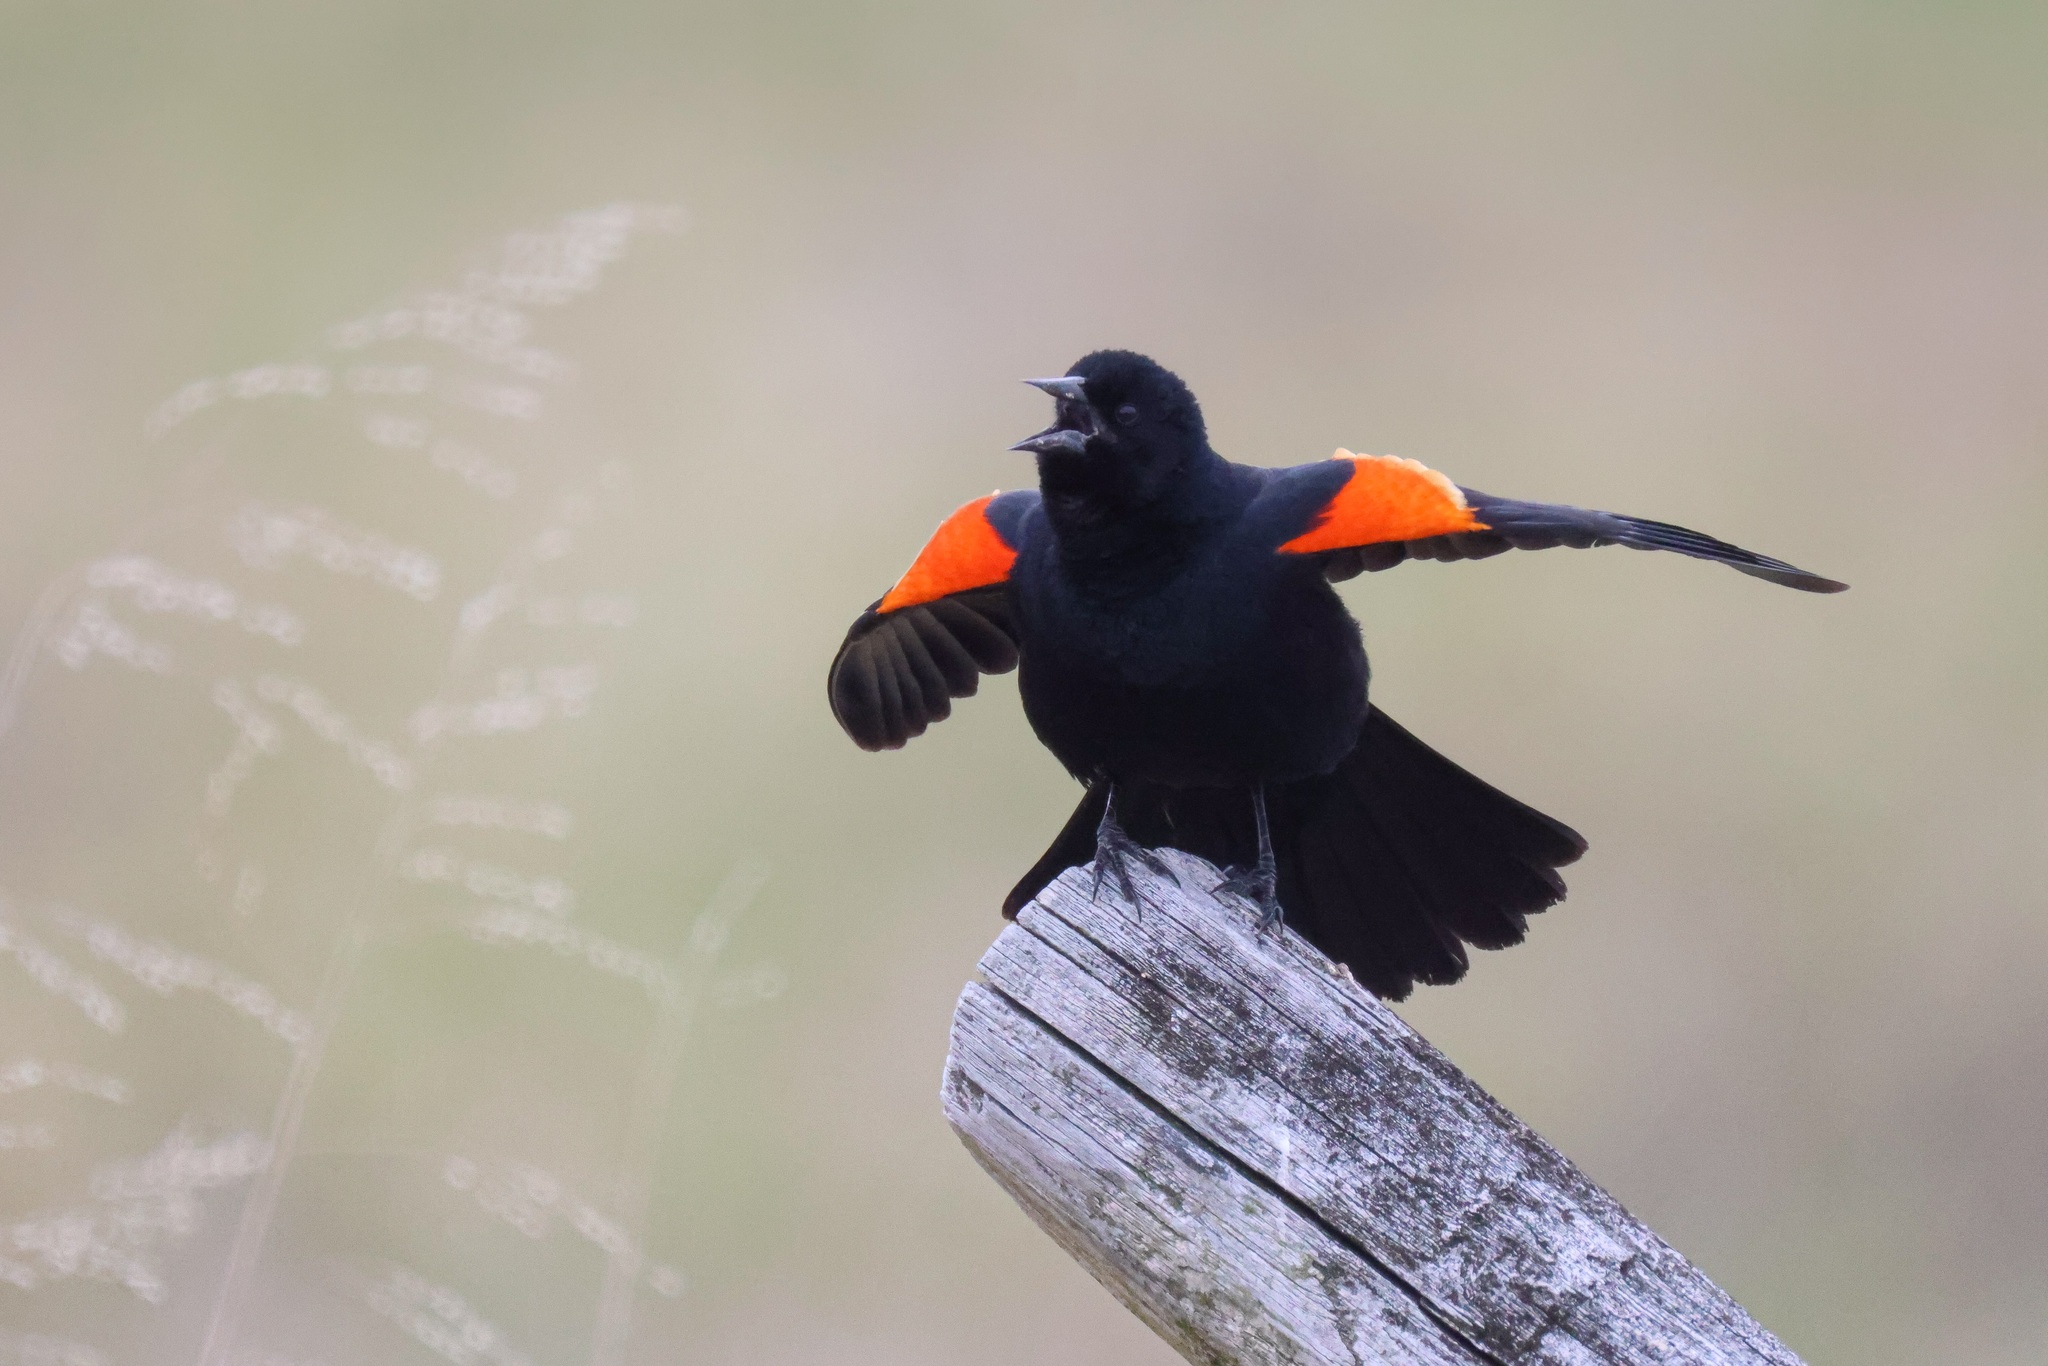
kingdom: Animalia
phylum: Chordata
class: Aves
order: Passeriformes
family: Icteridae
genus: Agelaius
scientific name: Agelaius phoeniceus
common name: Red-winged blackbird
